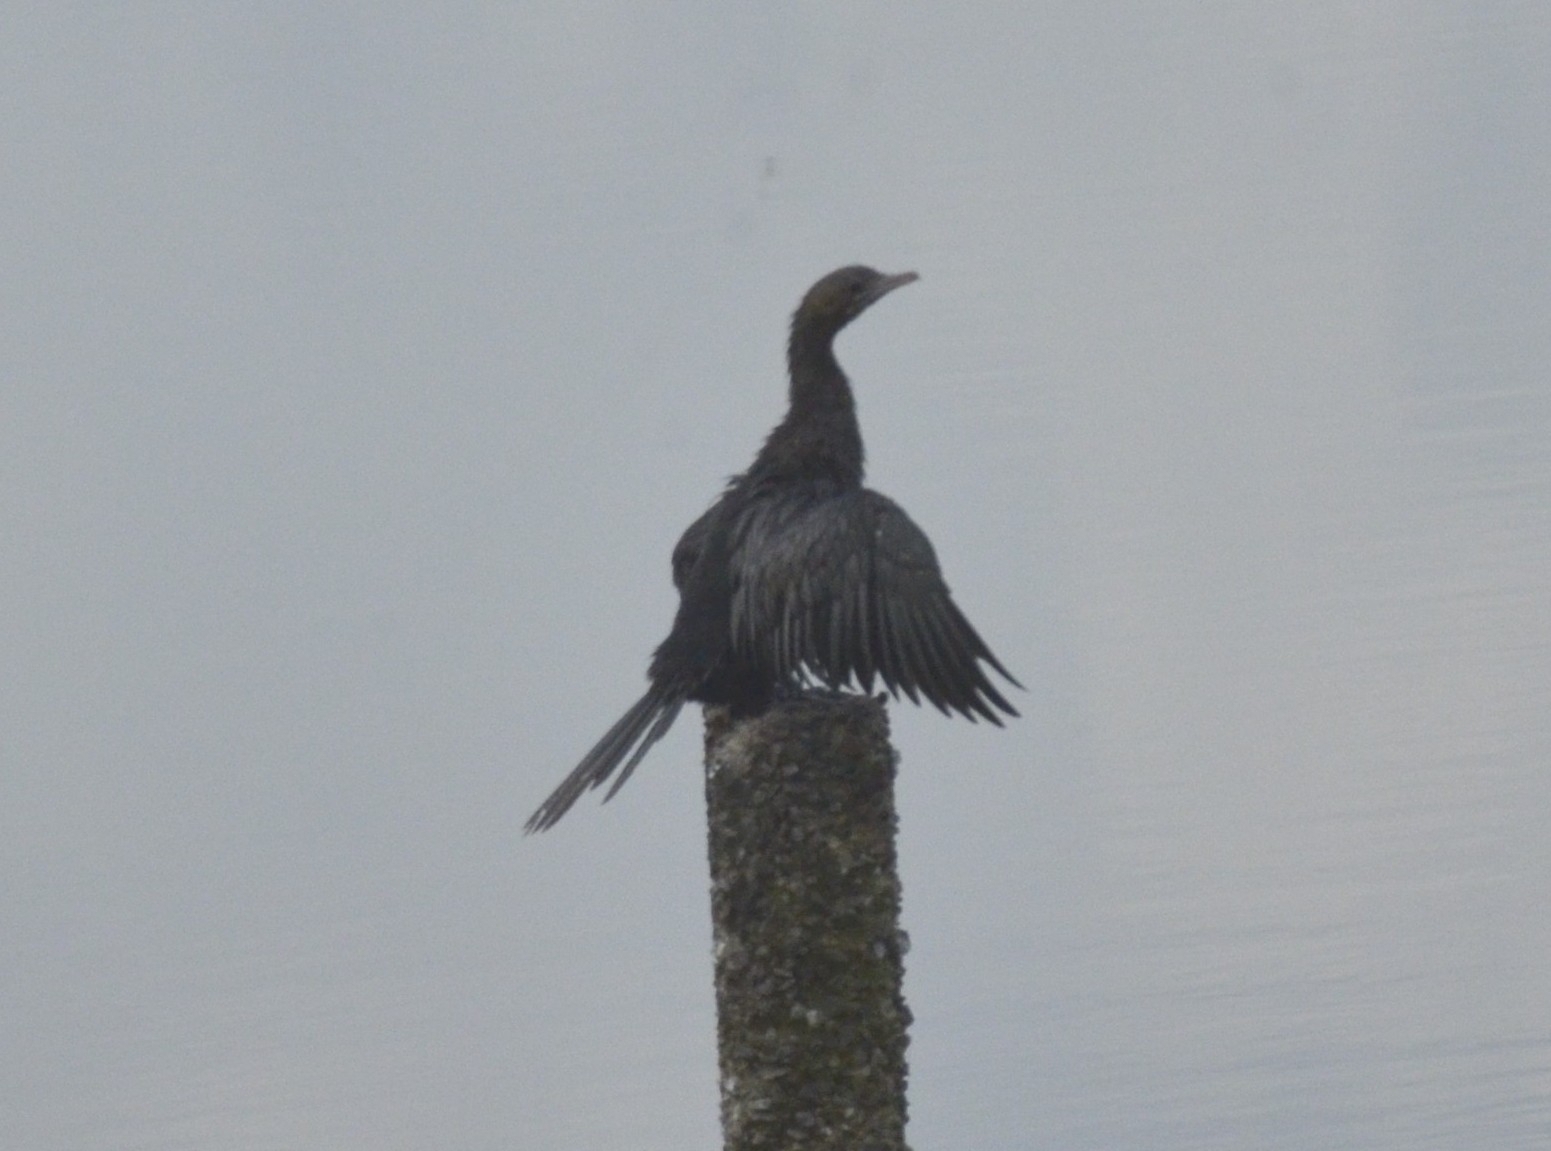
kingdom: Animalia
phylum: Chordata
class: Aves
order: Suliformes
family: Phalacrocoracidae
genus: Microcarbo
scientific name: Microcarbo niger
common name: Little cormorant
